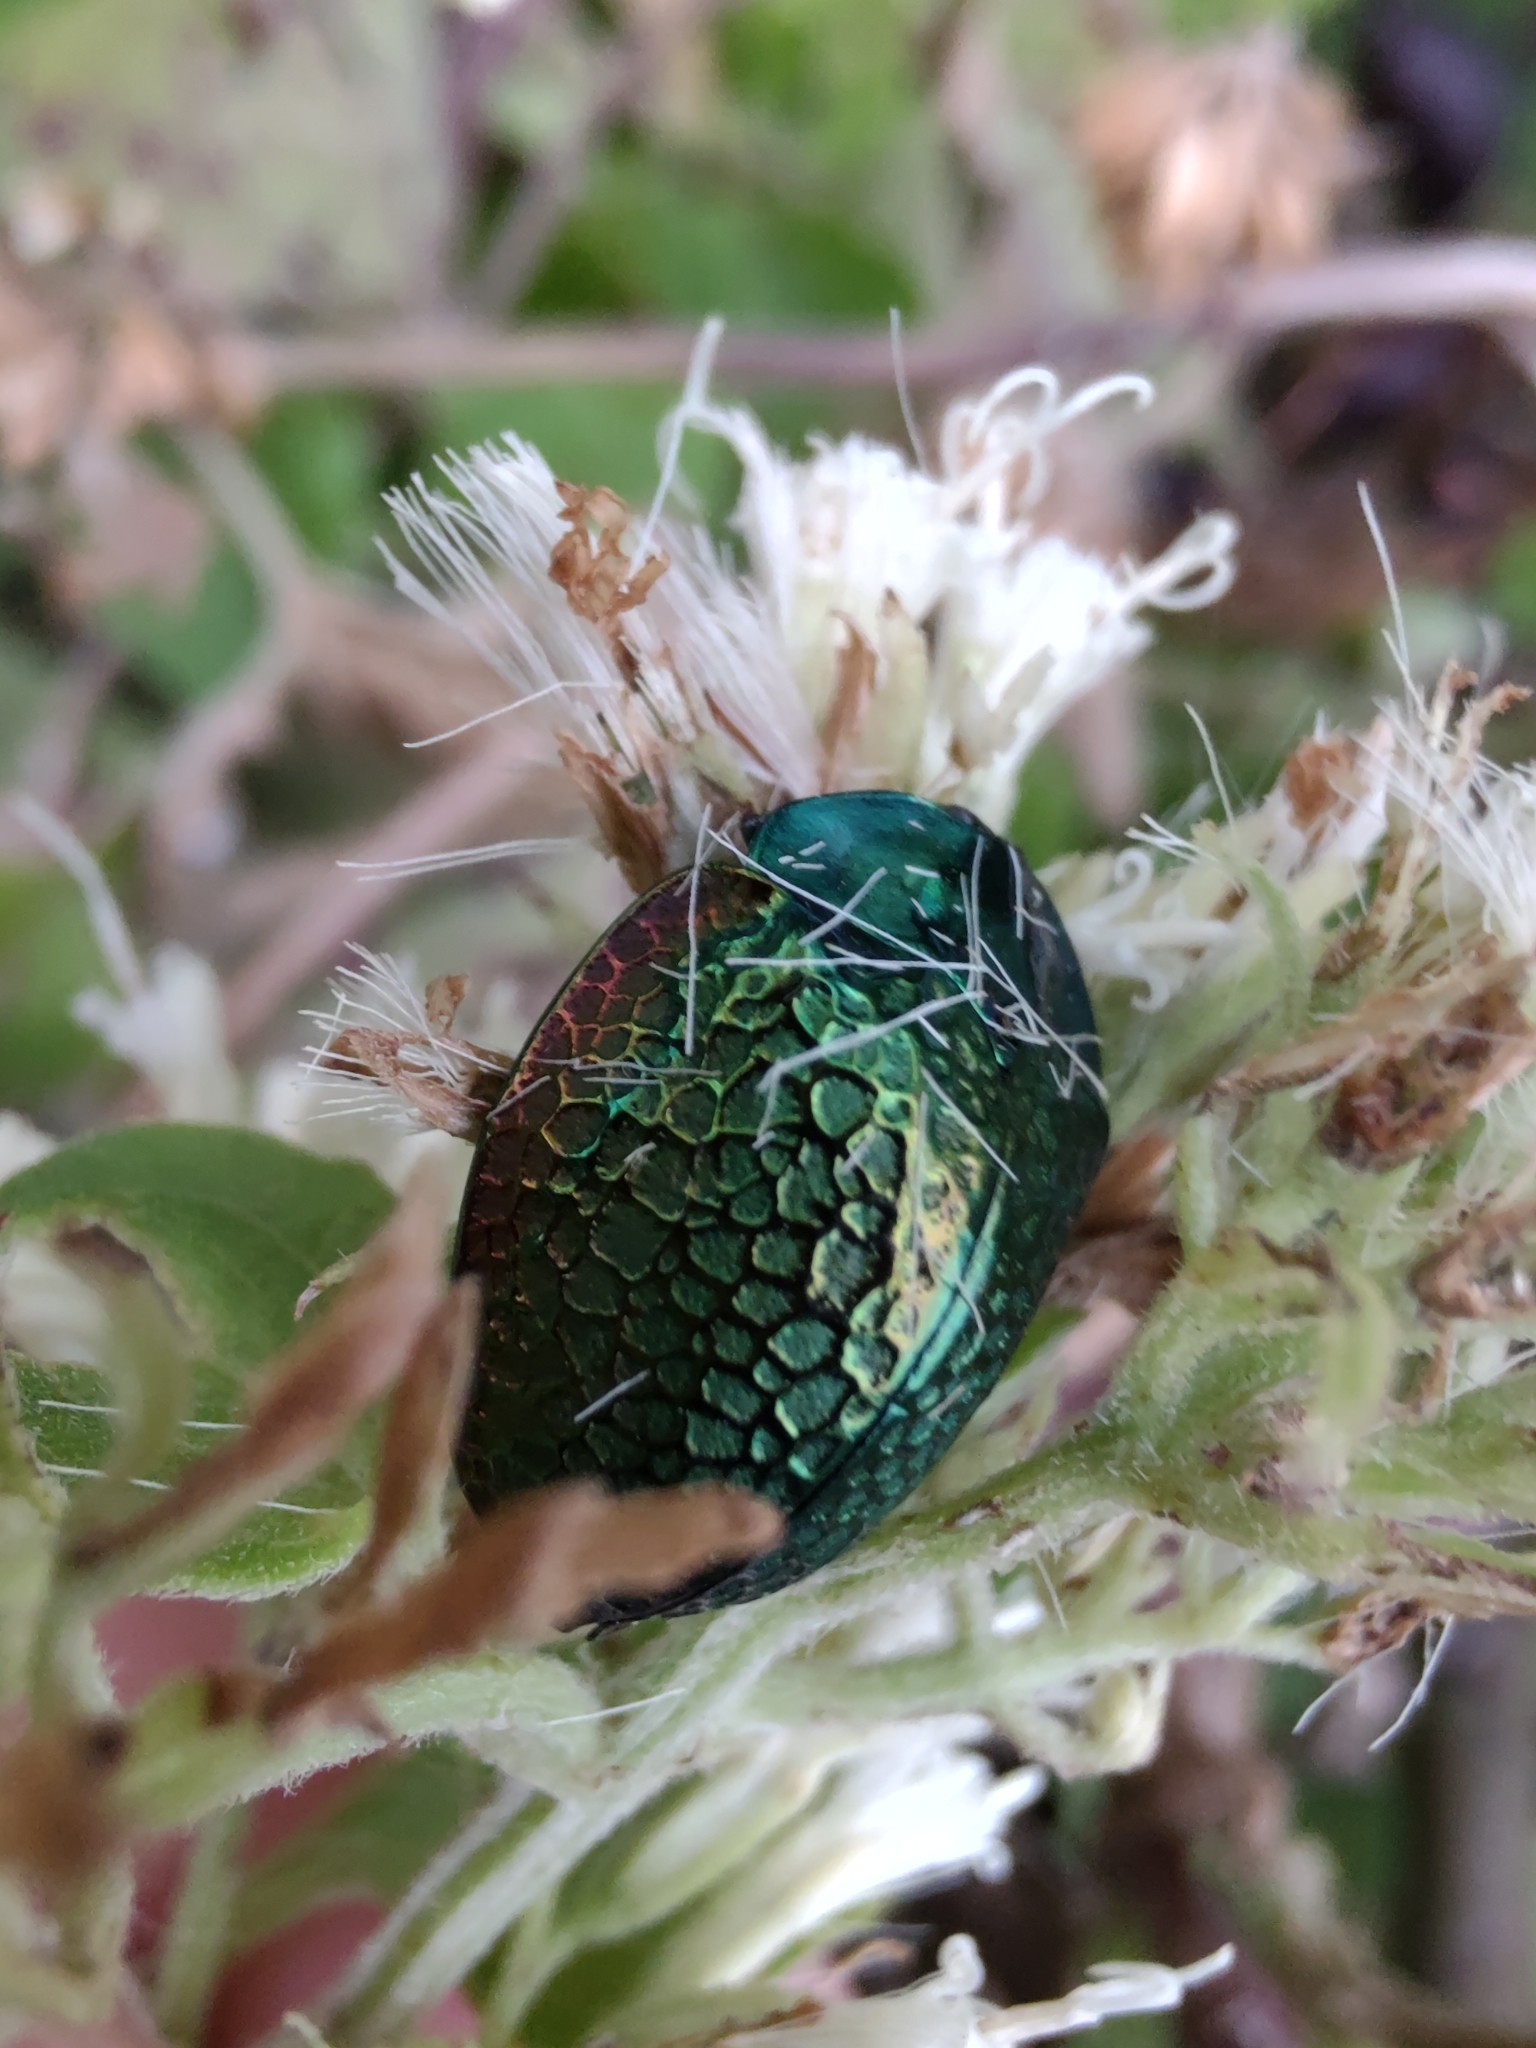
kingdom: Animalia
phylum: Arthropoda
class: Insecta
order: Coleoptera
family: Chrysomelidae
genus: Stolas
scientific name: Stolas festiva
